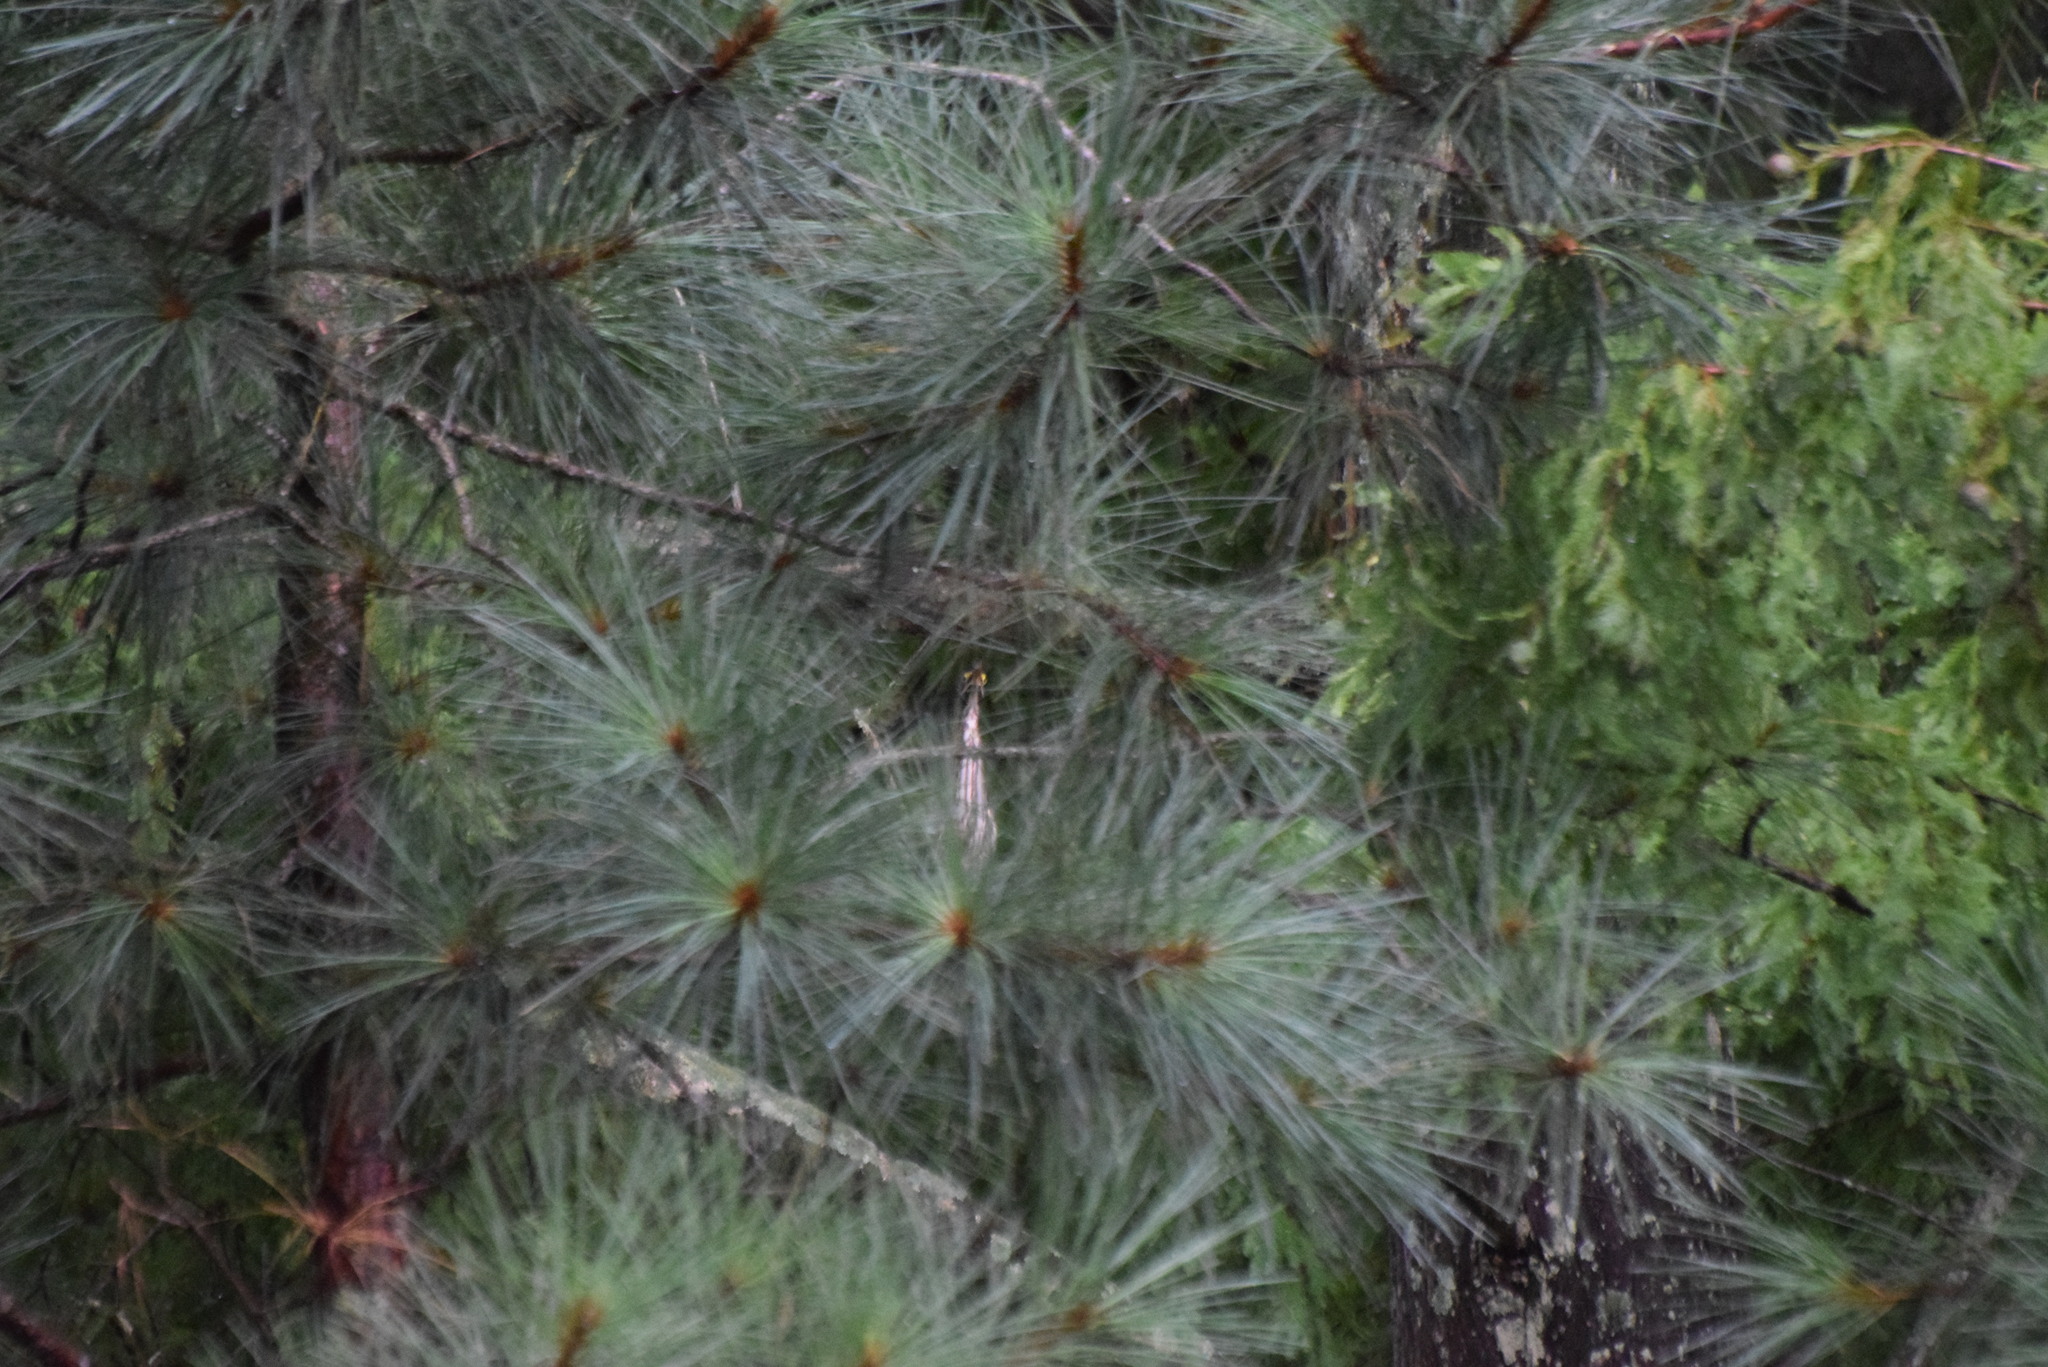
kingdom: Animalia
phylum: Chordata
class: Aves
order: Pelecaniformes
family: Ardeidae
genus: Butorides
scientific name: Butorides virescens
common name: Green heron
